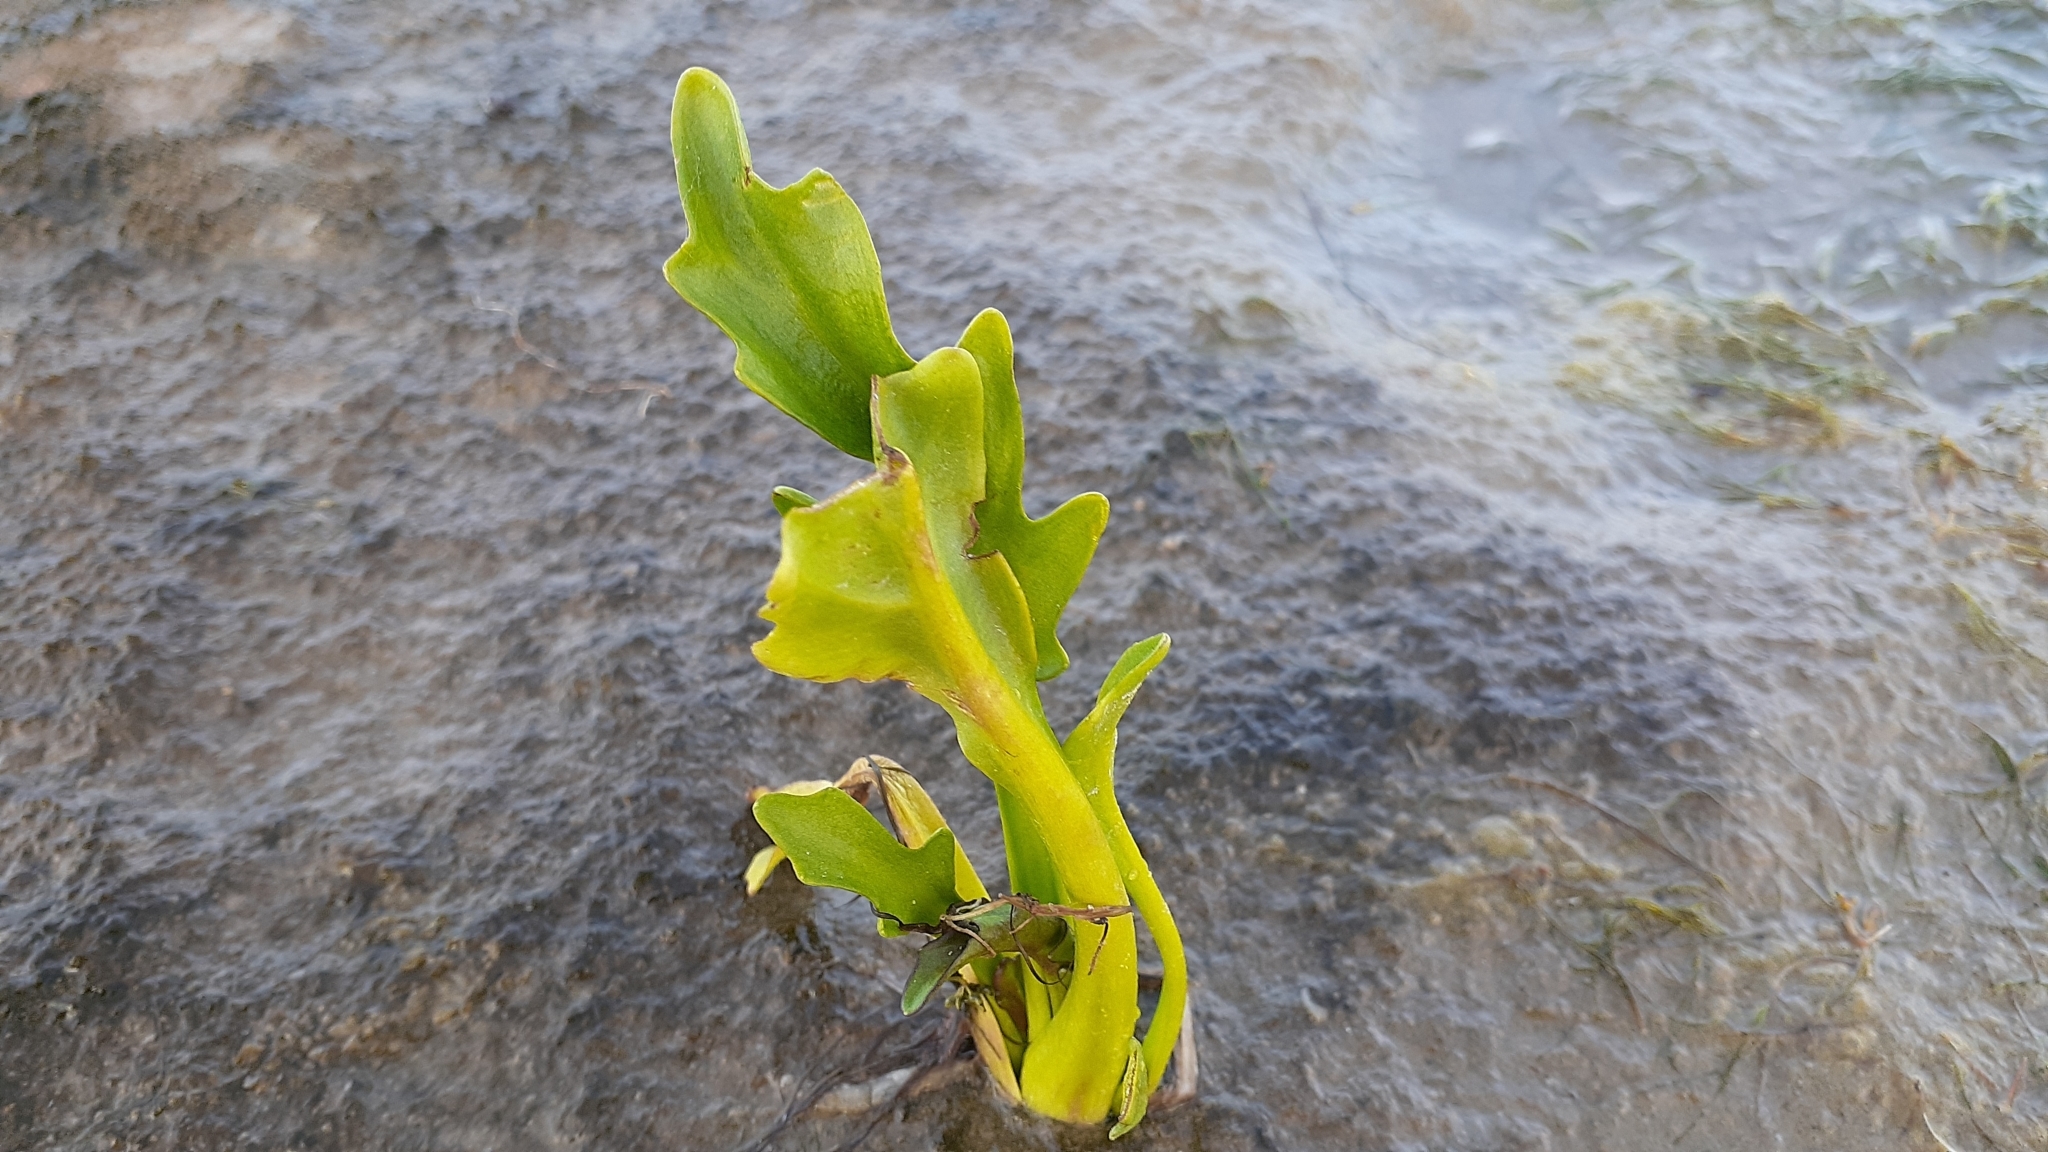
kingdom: Plantae
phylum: Tracheophyta
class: Magnoliopsida
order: Asterales
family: Asteraceae
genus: Tephroseris
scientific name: Tephroseris palustris
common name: Marsh fleawort
